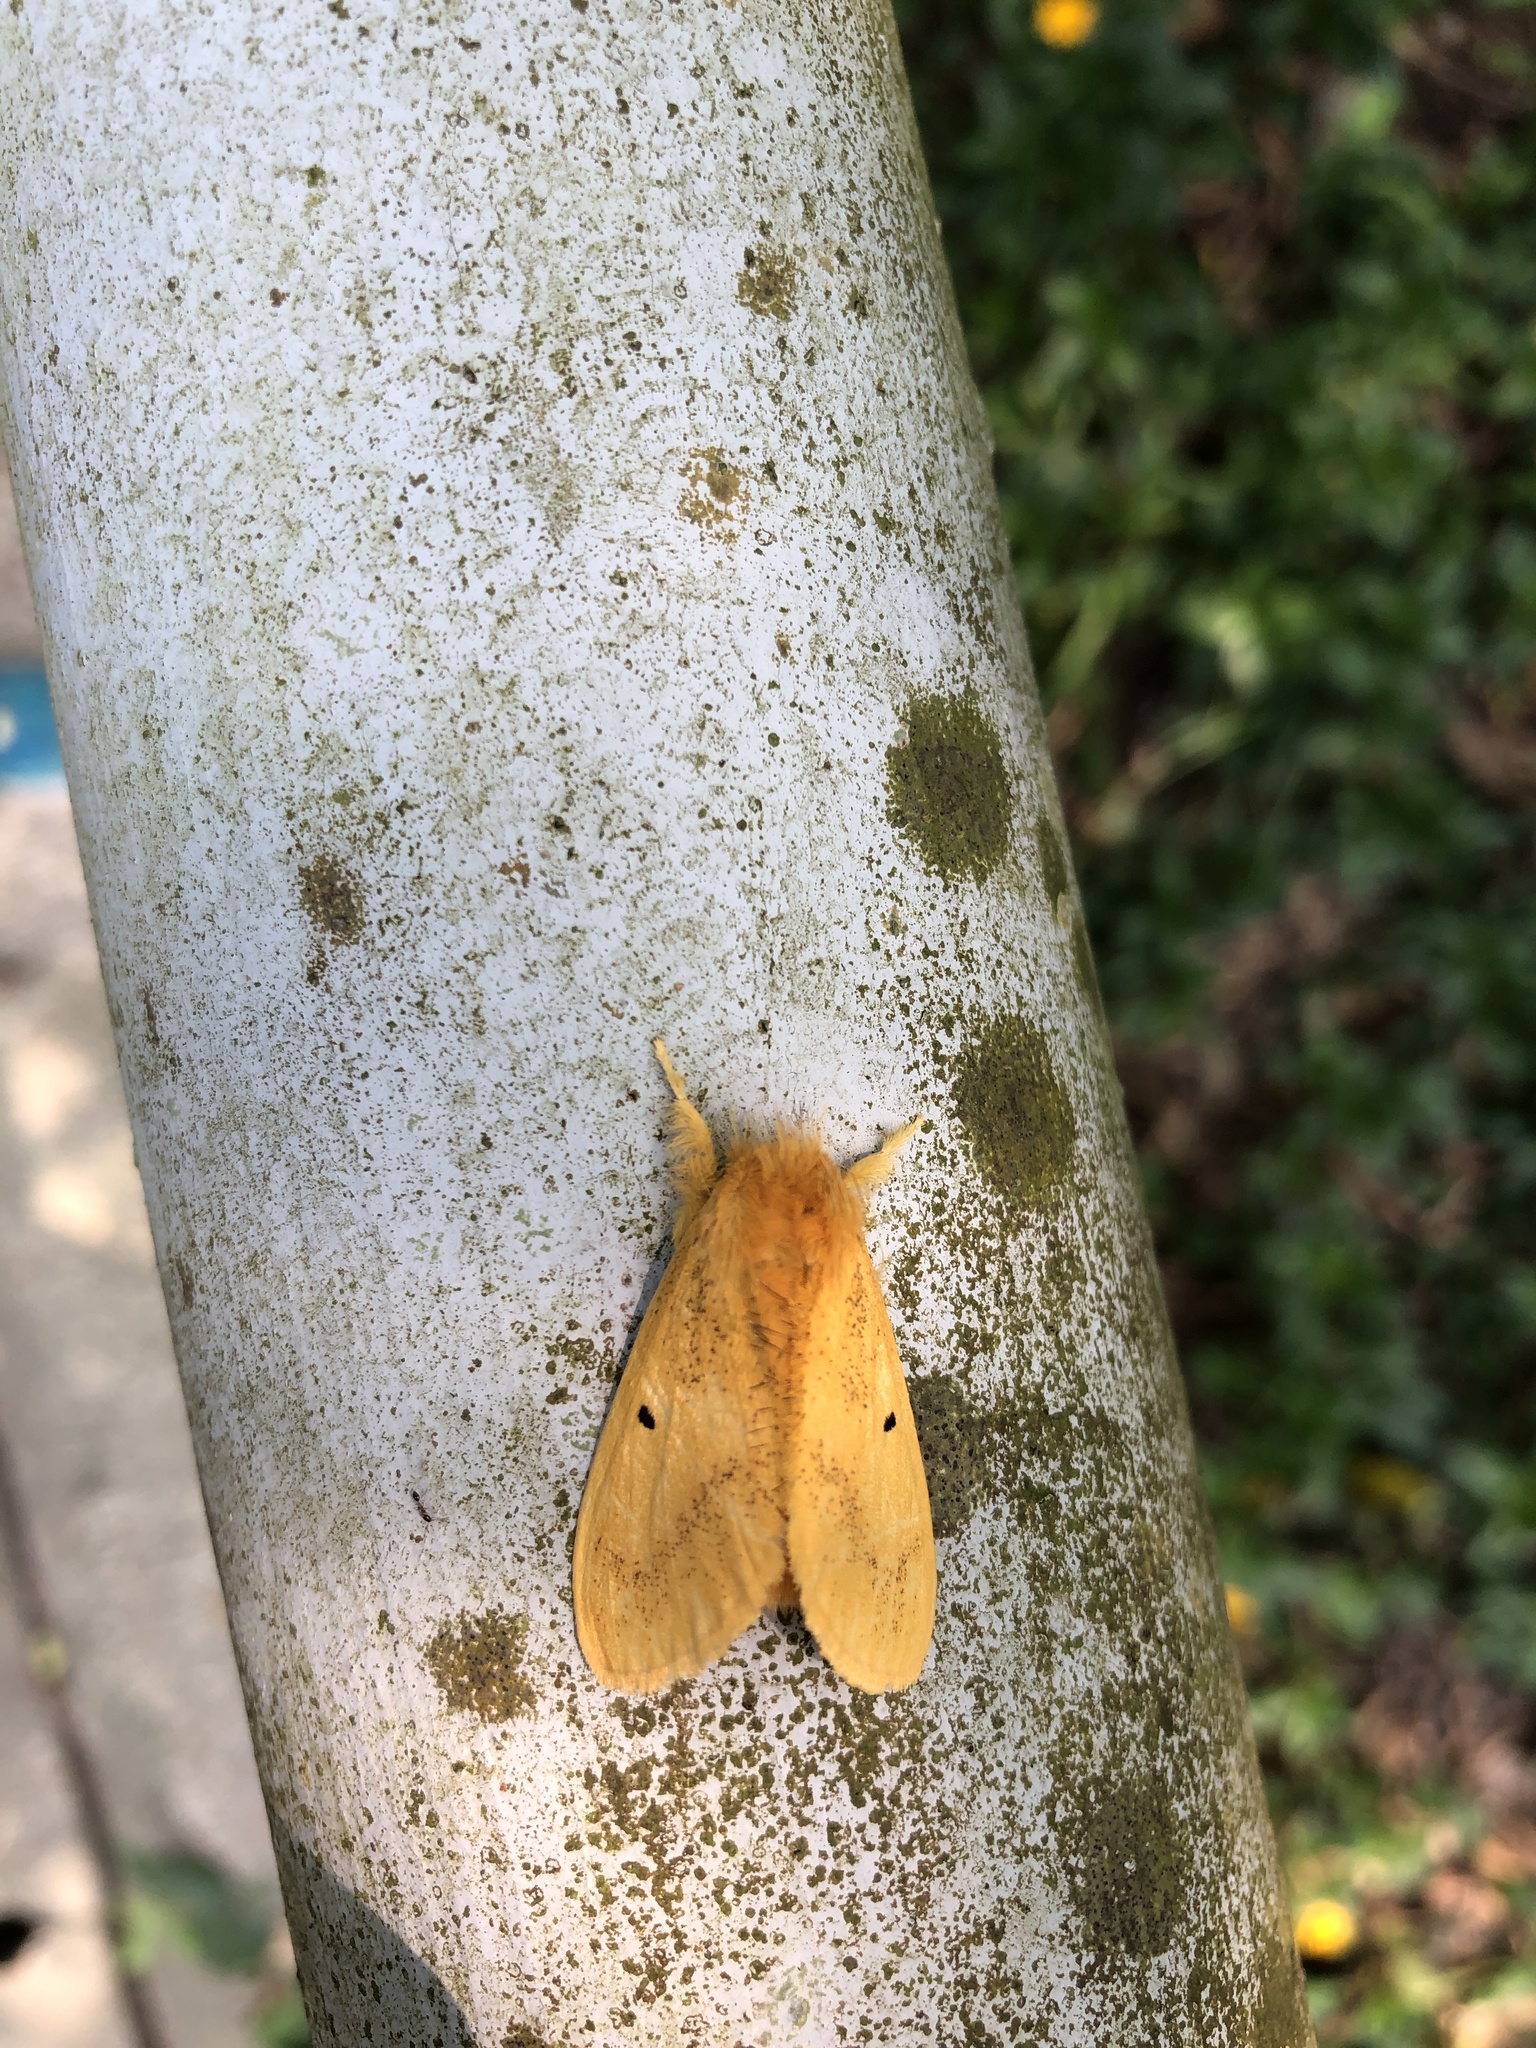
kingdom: Animalia
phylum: Arthropoda
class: Insecta
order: Lepidoptera
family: Erebidae
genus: Nygmia
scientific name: Nygmia plana
